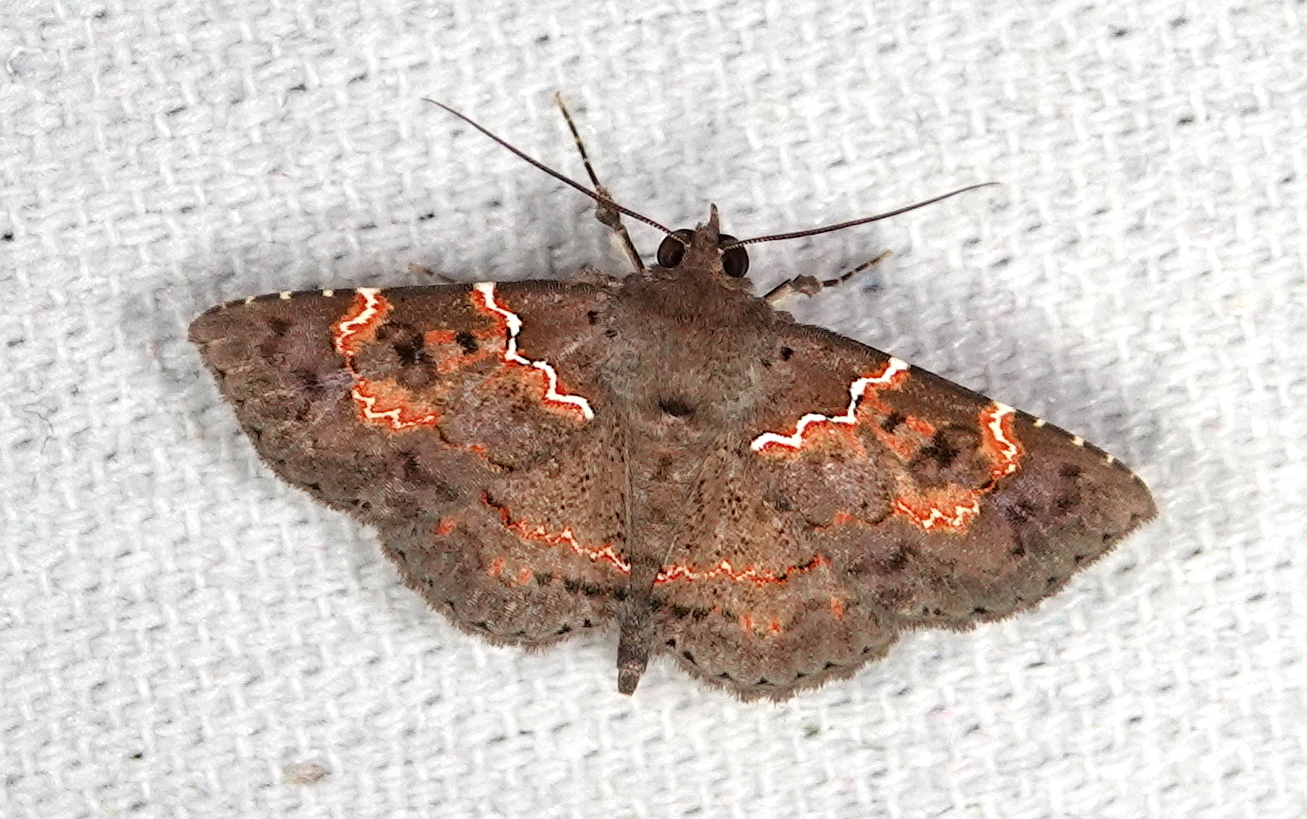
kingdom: Animalia
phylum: Arthropoda
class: Insecta
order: Lepidoptera
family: Erebidae
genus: Antiblemma
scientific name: Antiblemma rubida
